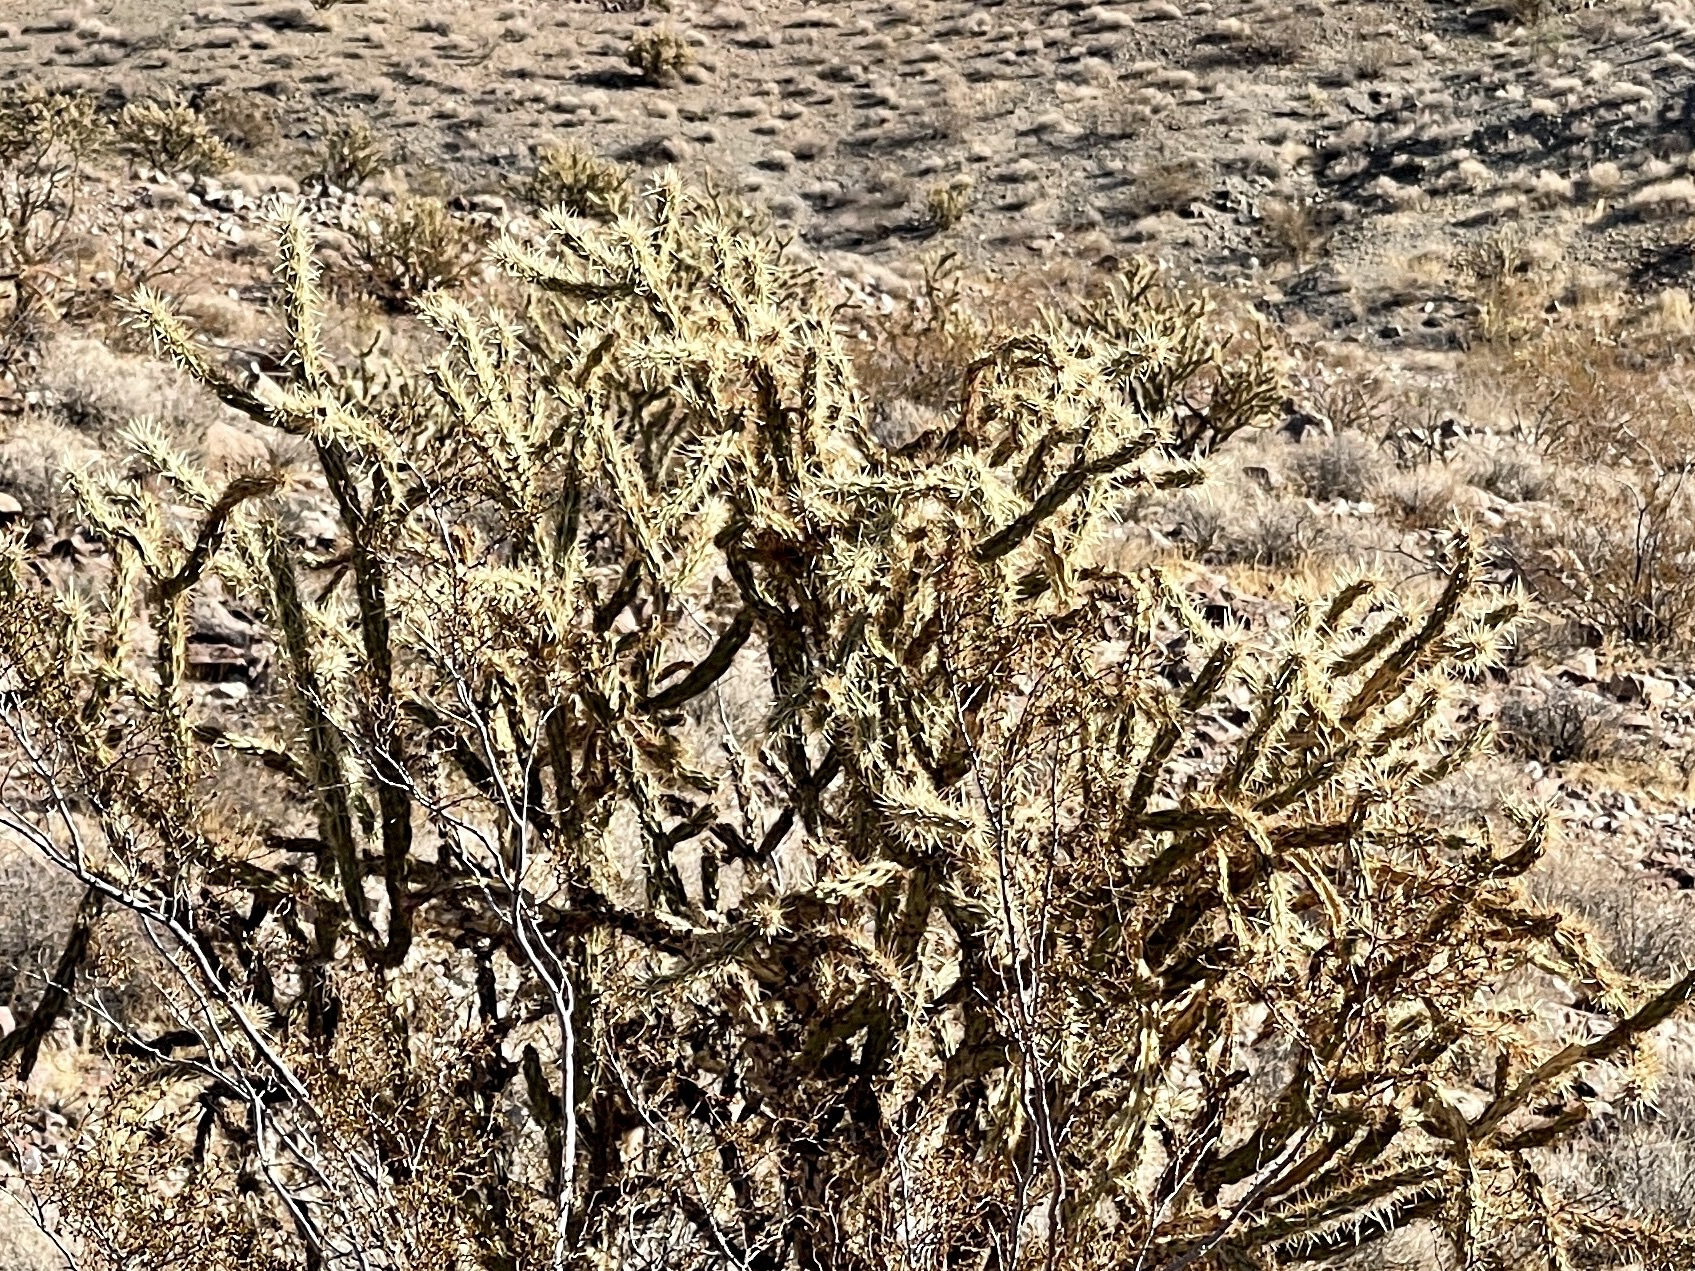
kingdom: Plantae
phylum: Tracheophyta
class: Magnoliopsida
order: Caryophyllales
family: Cactaceae
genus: Cylindropuntia
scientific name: Cylindropuntia acanthocarpa
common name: Buckhorn cholla
